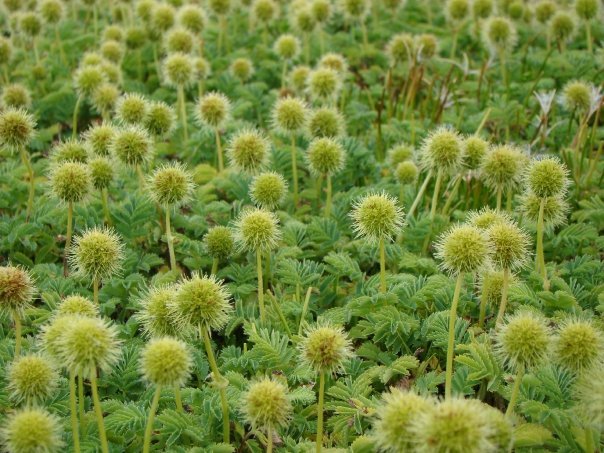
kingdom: Plantae
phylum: Tracheophyta
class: Magnoliopsida
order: Rosales
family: Rosaceae
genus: Acaena
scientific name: Acaena minor
